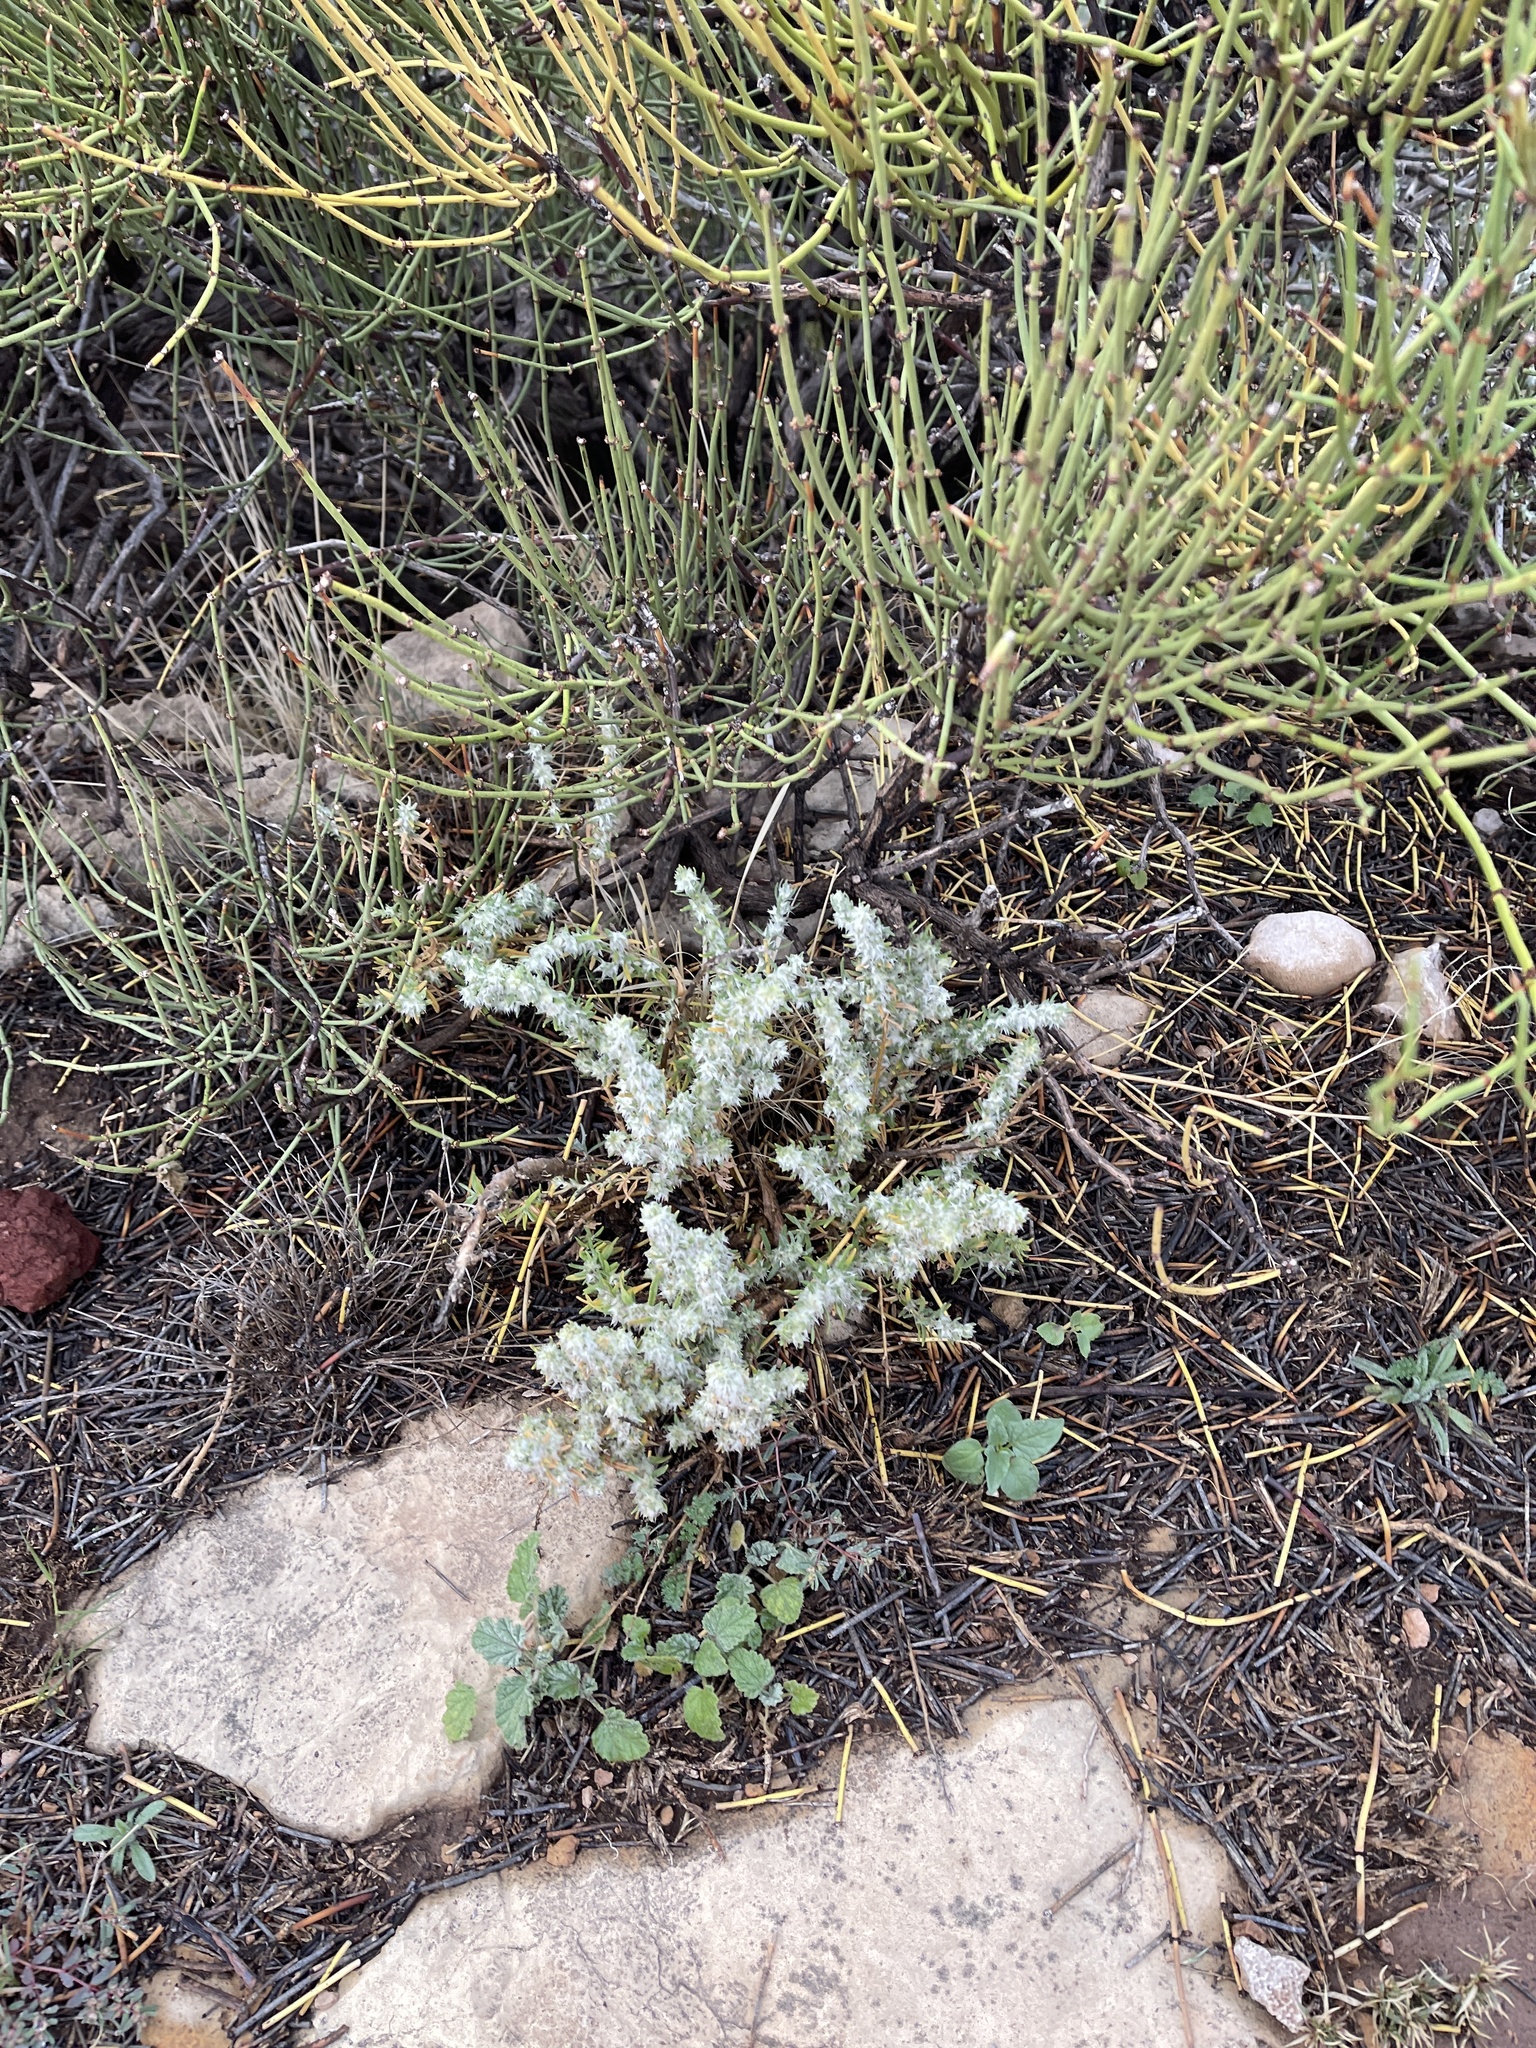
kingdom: Plantae
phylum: Tracheophyta
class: Magnoliopsida
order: Caryophyllales
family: Amaranthaceae
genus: Krascheninnikovia
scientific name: Krascheninnikovia lanata
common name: Winterfat
